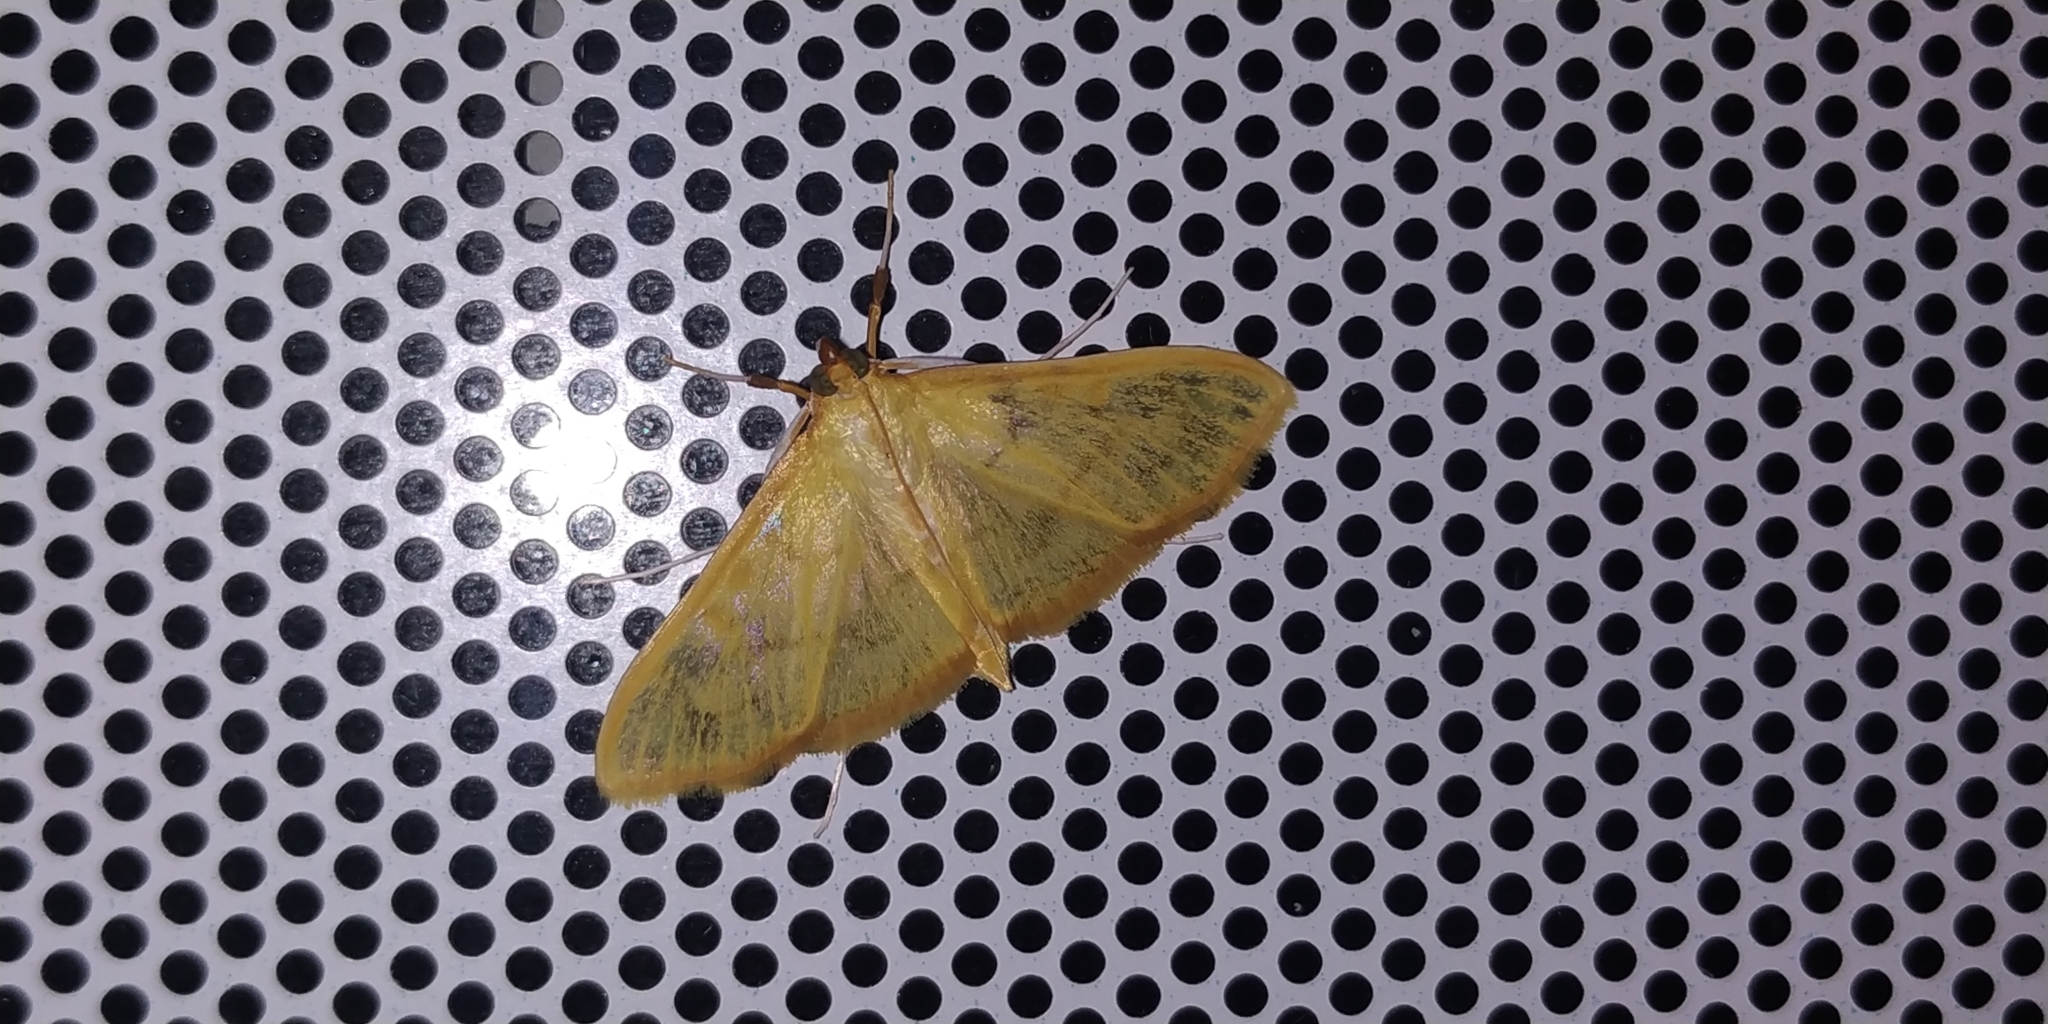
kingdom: Animalia
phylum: Arthropoda
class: Insecta
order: Lepidoptera
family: Crambidae
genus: Condylorrhiza
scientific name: Condylorrhiza vestigialis
